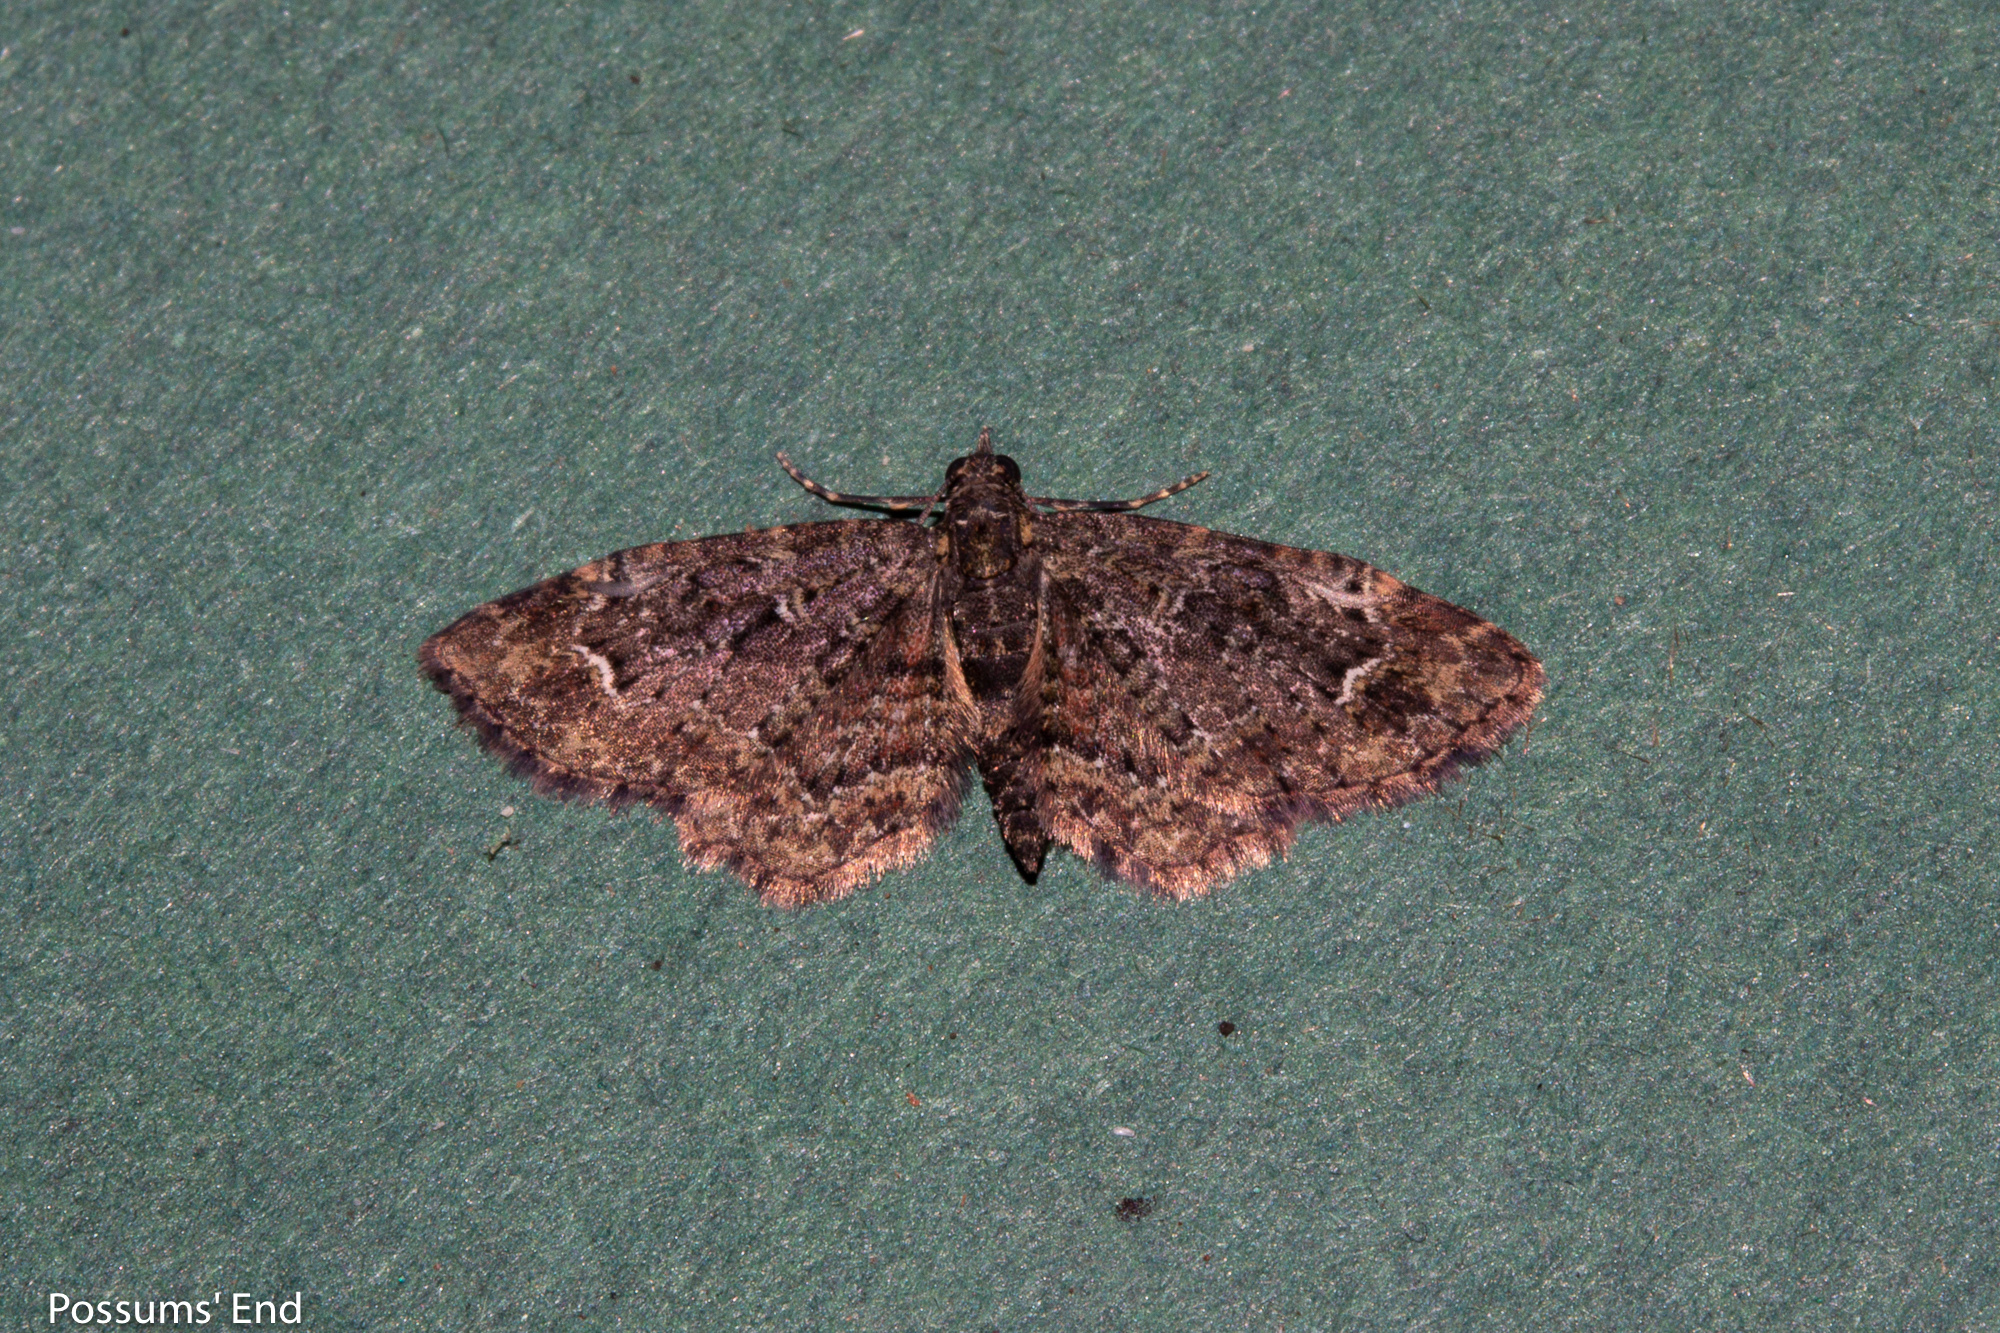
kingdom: Animalia
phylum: Arthropoda
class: Insecta
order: Lepidoptera
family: Geometridae
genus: Pasiphilodes
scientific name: Pasiphilodes testulata
